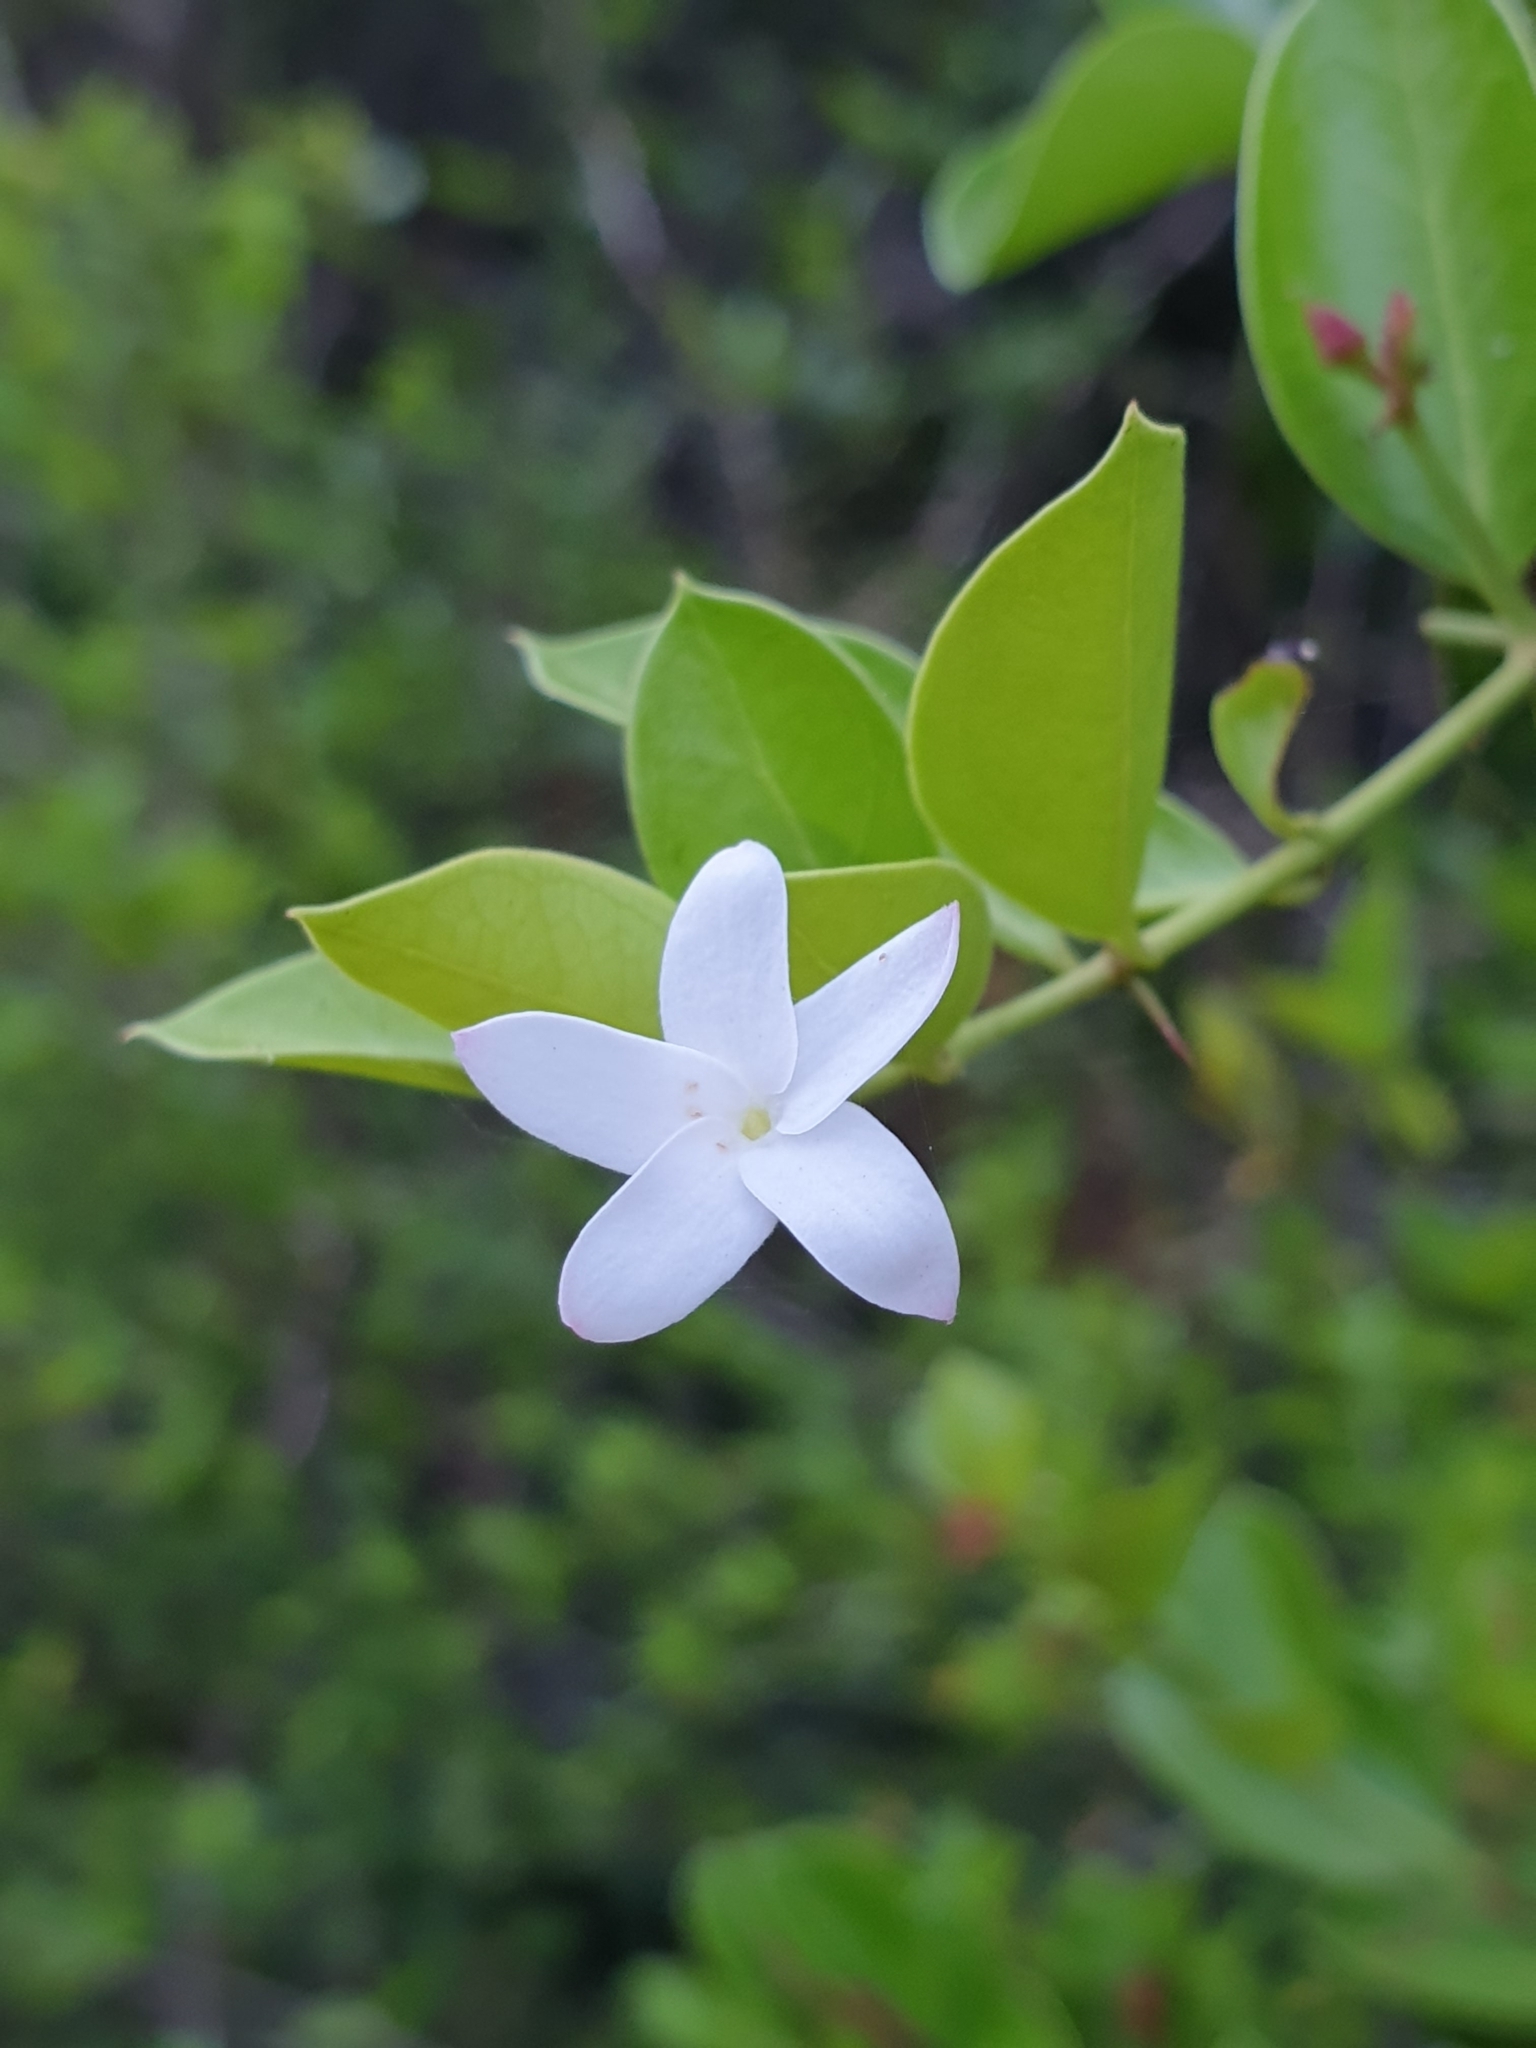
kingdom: Plantae
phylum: Tracheophyta
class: Magnoliopsida
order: Gentianales
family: Apocynaceae
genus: Carissa
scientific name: Carissa spinarum
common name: Egyptian carissa
